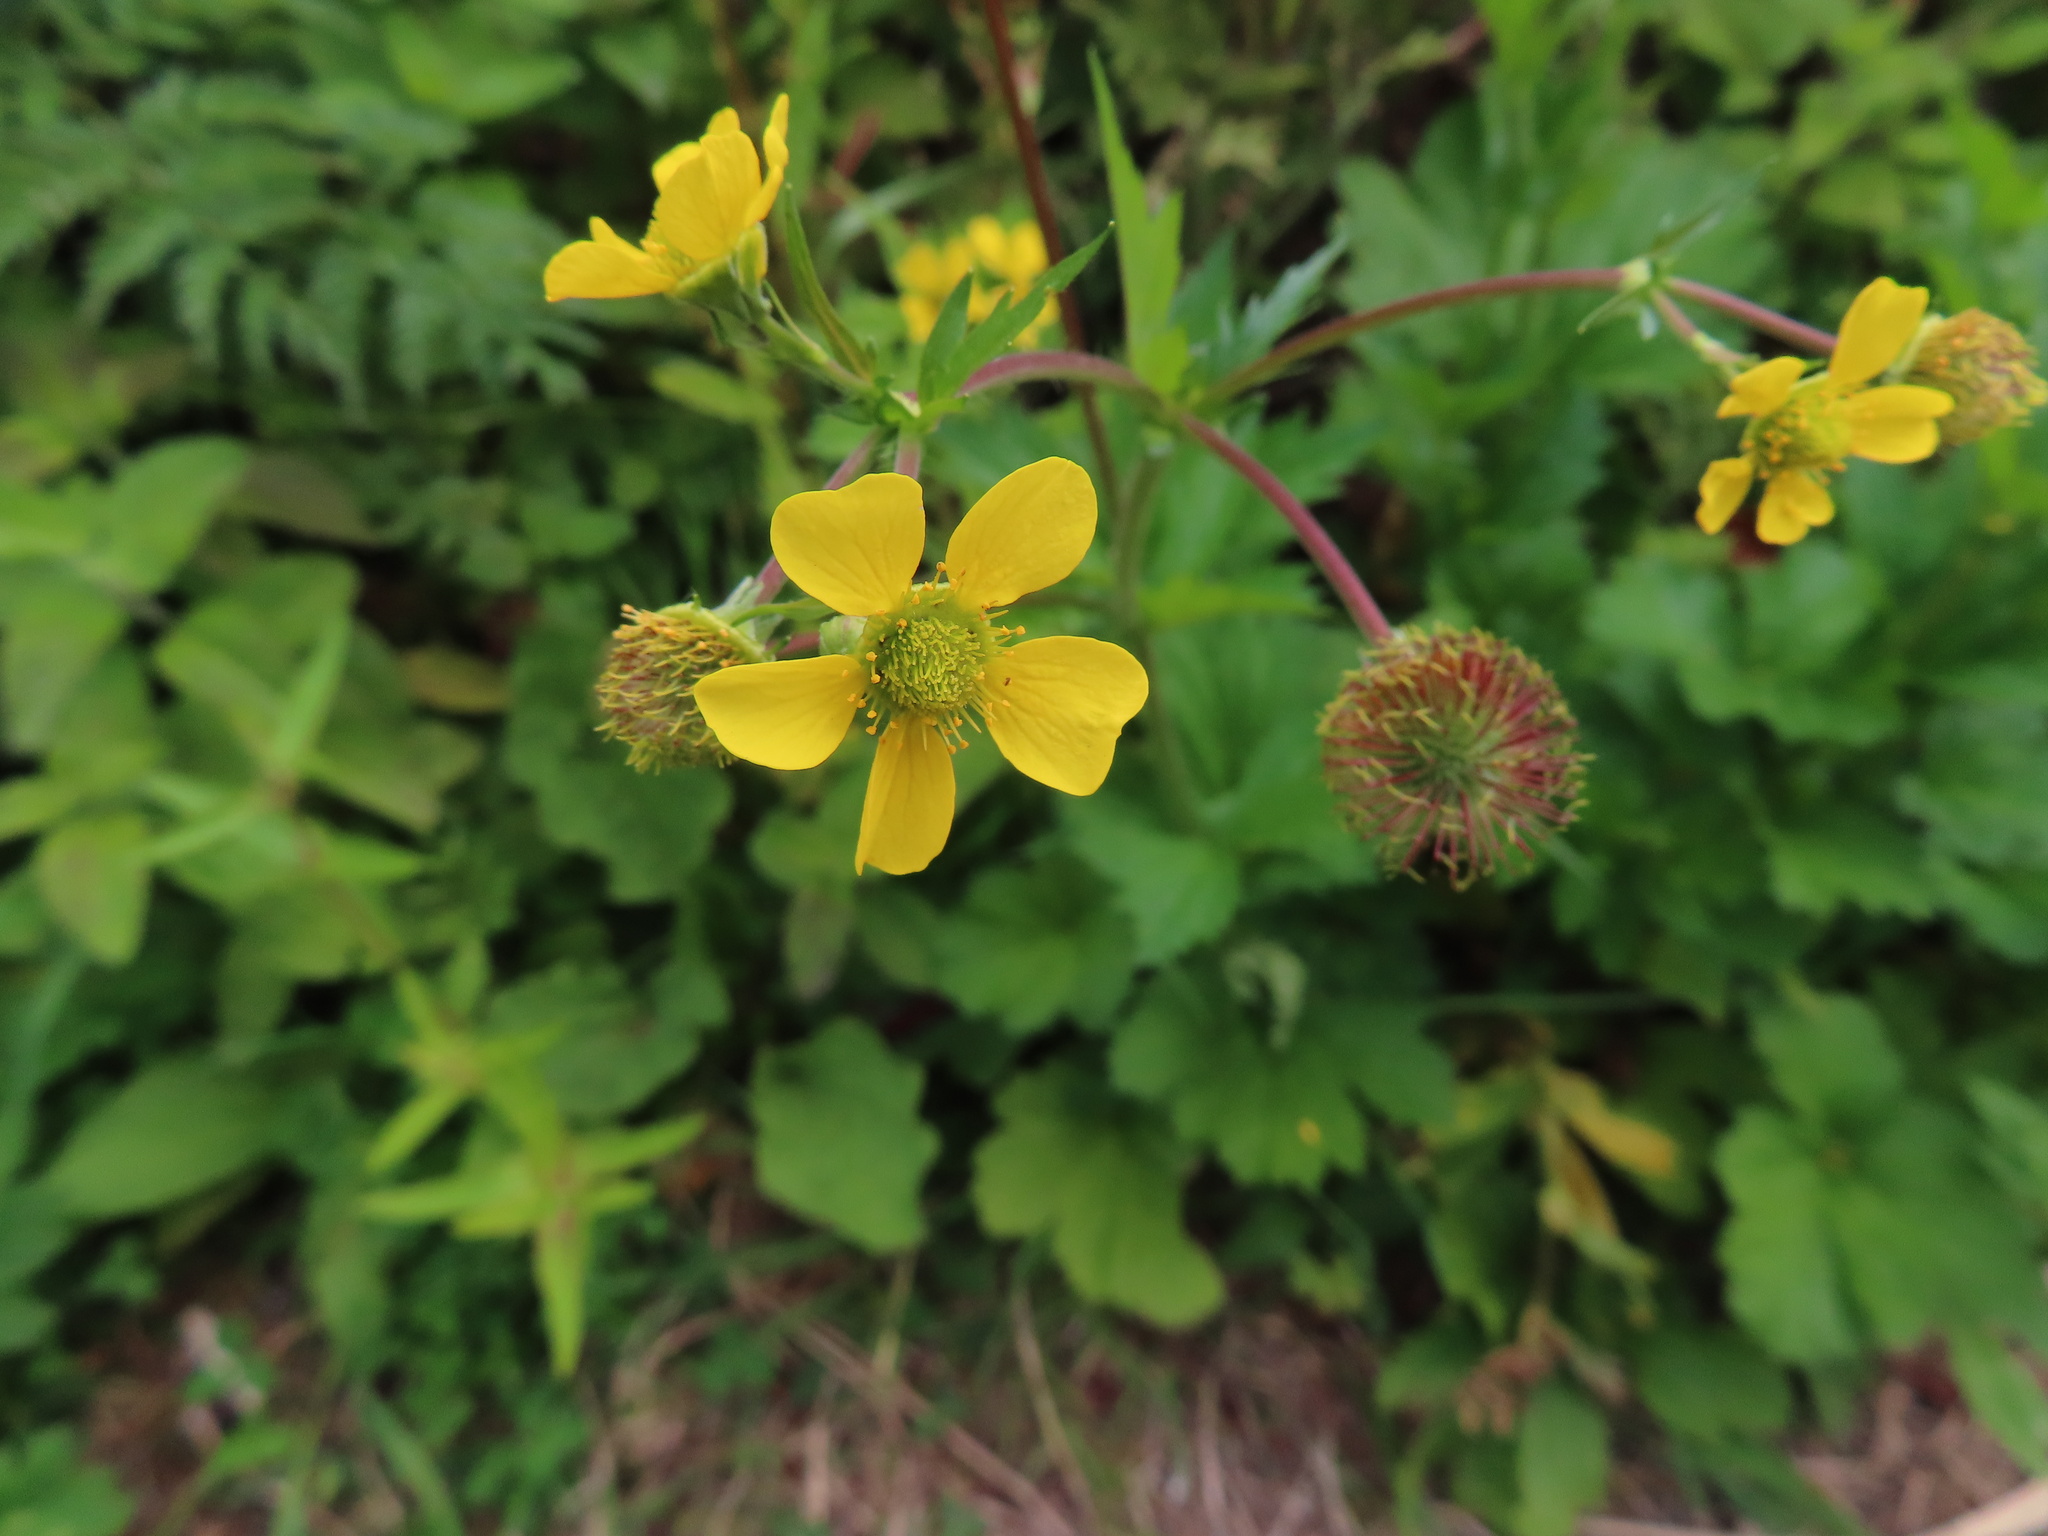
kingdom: Plantae
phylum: Tracheophyta
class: Magnoliopsida
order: Rosales
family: Rosaceae
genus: Geum
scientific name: Geum macrophyllum
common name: Large-leaved avens
